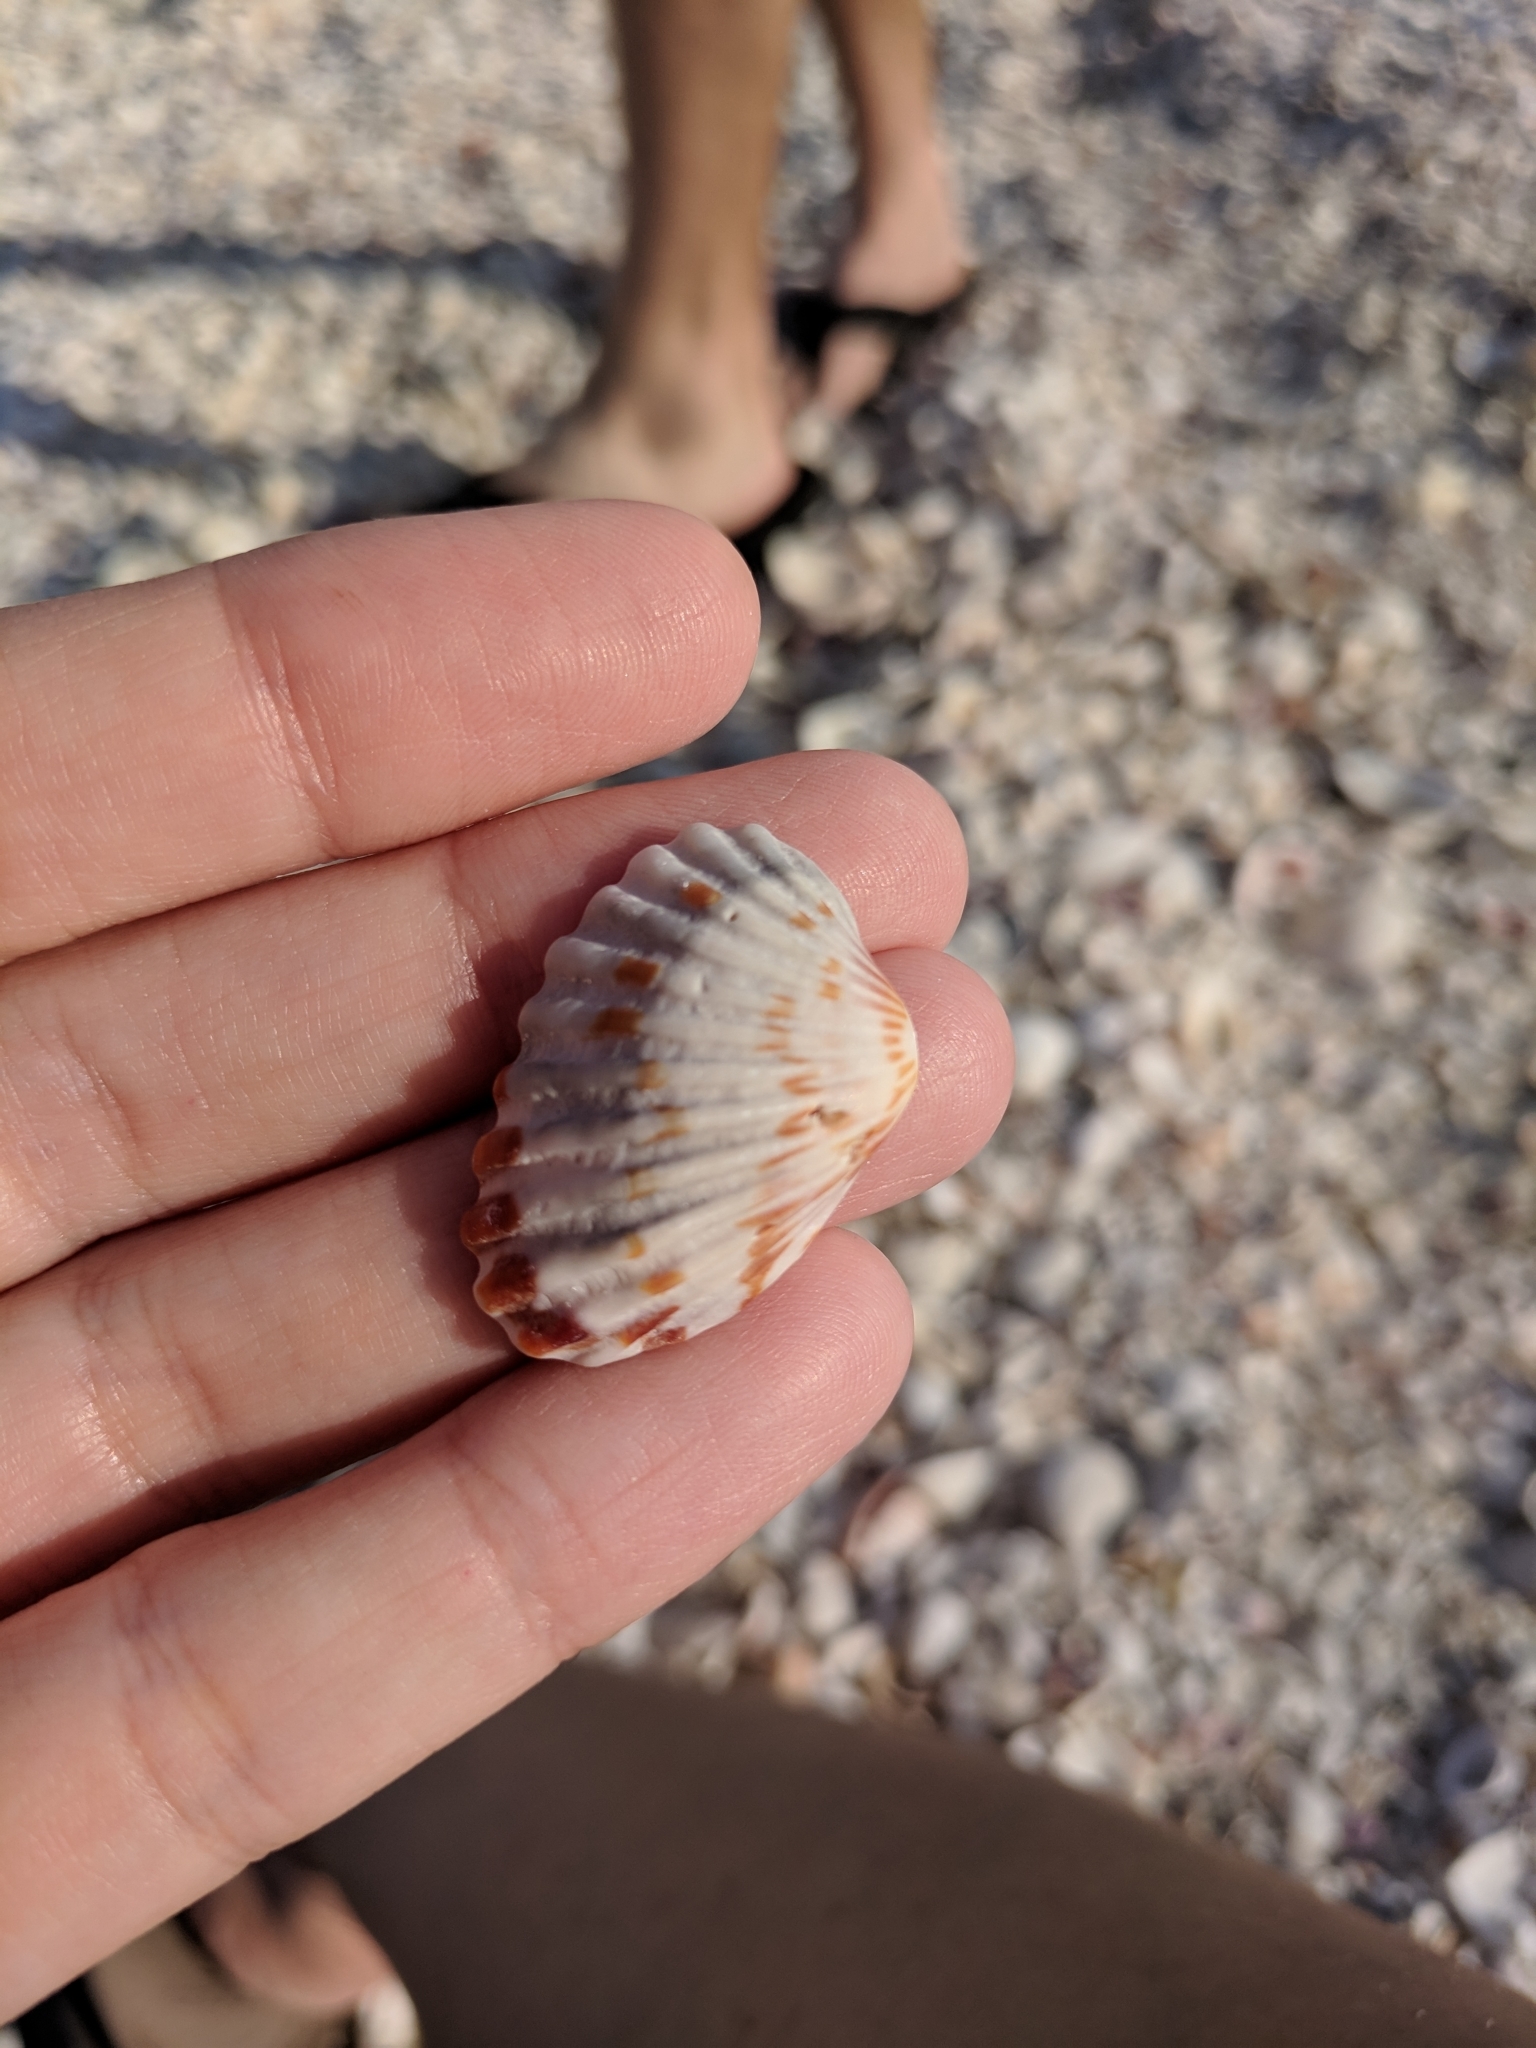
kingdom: Animalia
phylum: Mollusca
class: Bivalvia
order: Carditida
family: Carditidae
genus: Cardites
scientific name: Cardites floridanus
